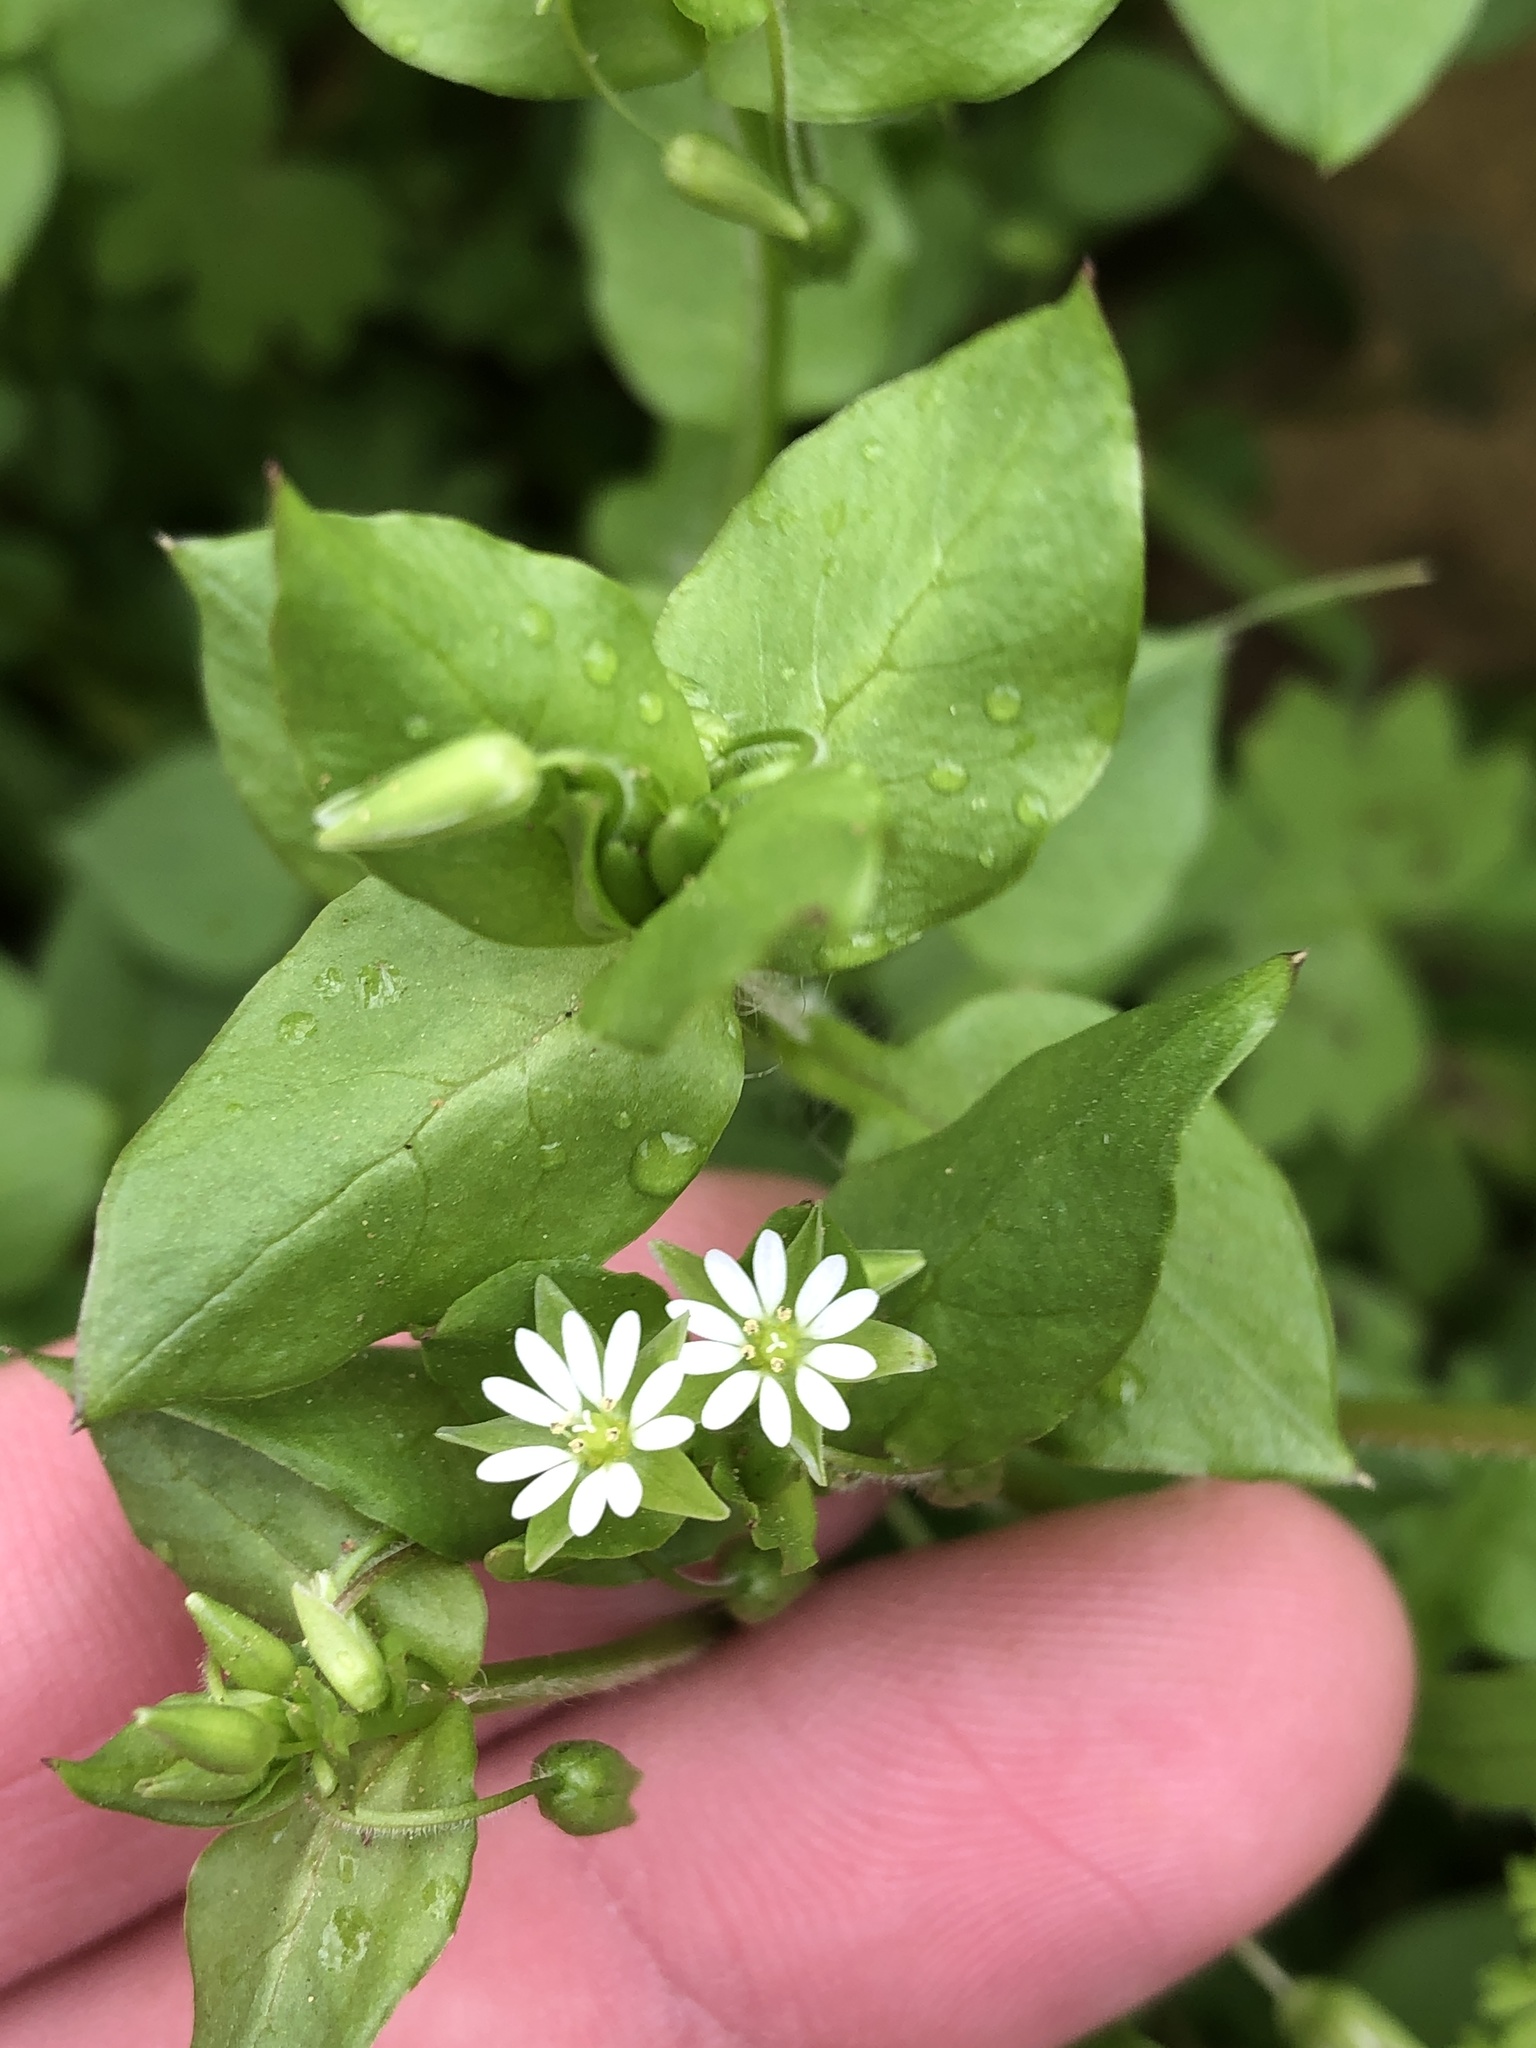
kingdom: Plantae
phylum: Tracheophyta
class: Magnoliopsida
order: Caryophyllales
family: Caryophyllaceae
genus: Stellaria
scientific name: Stellaria media
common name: Common chickweed
